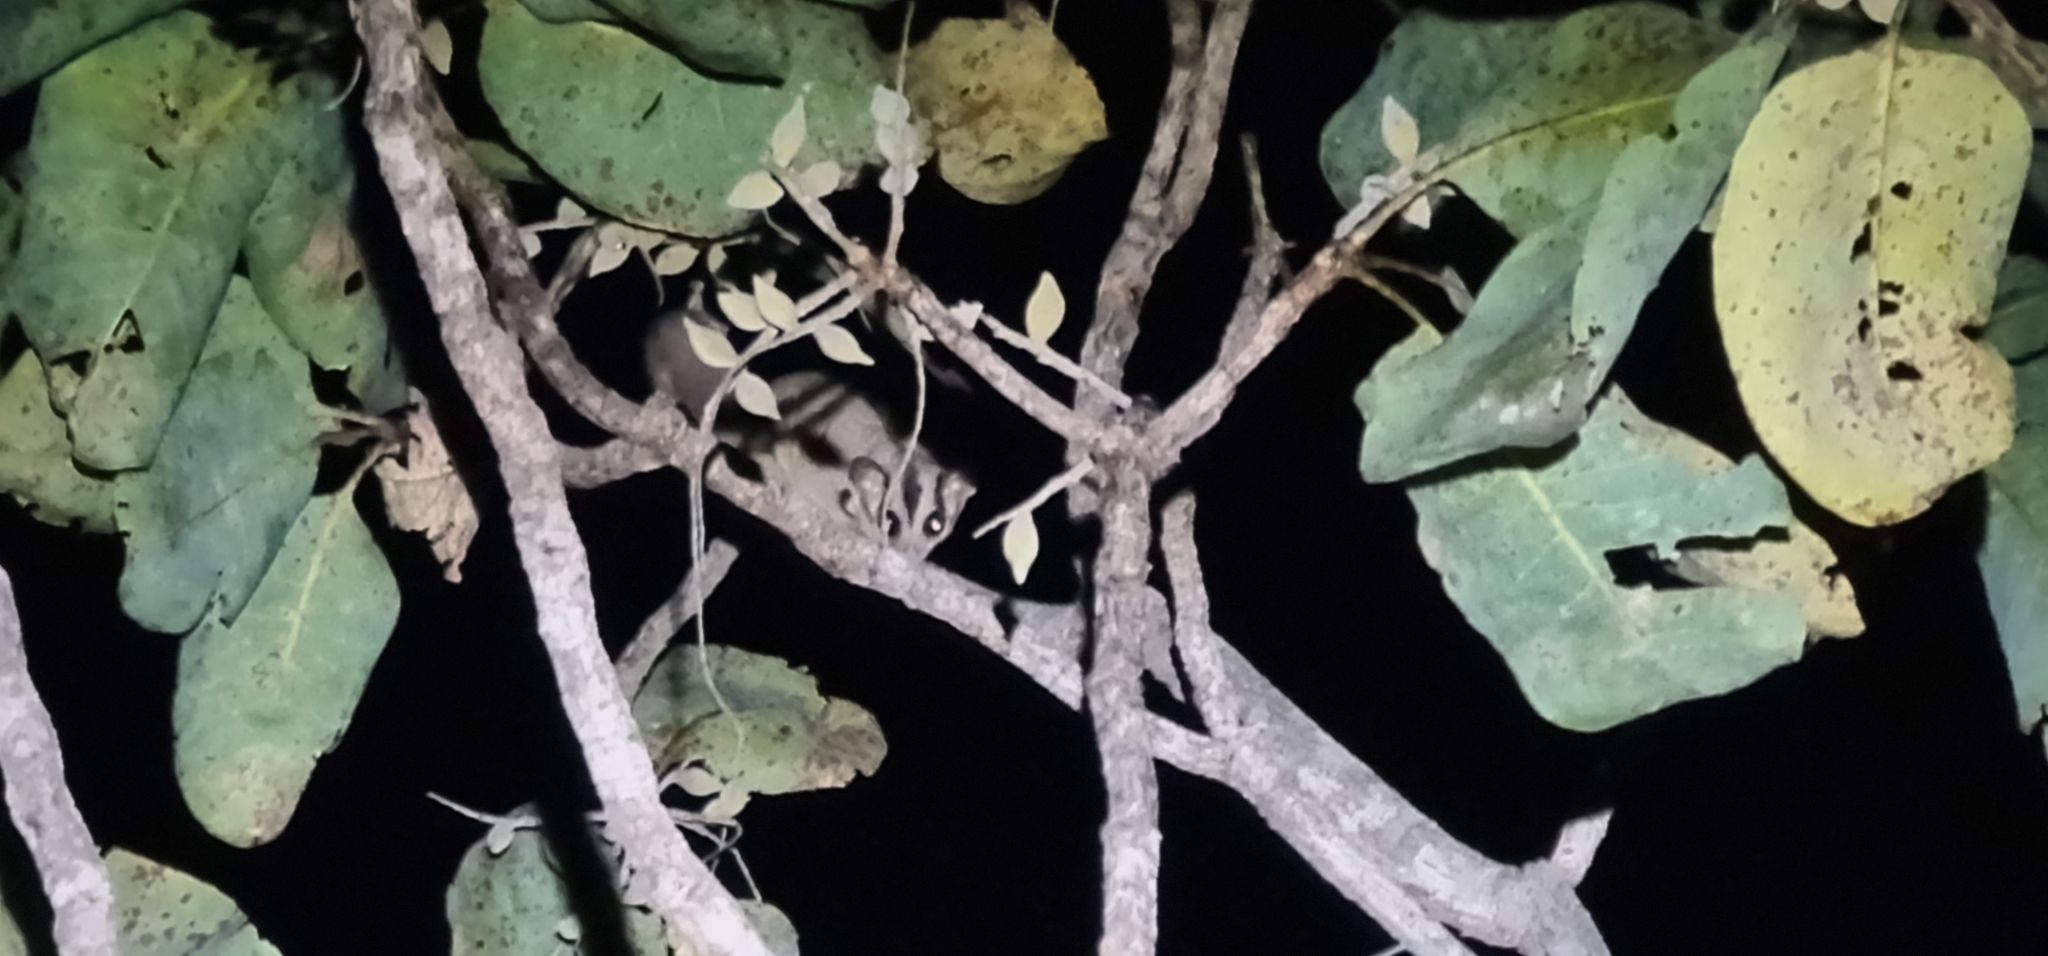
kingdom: Animalia
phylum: Chordata
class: Mammalia
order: Diprotodontia
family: Petauridae
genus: Petaurus
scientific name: Petaurus breviceps
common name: Sugar glider
